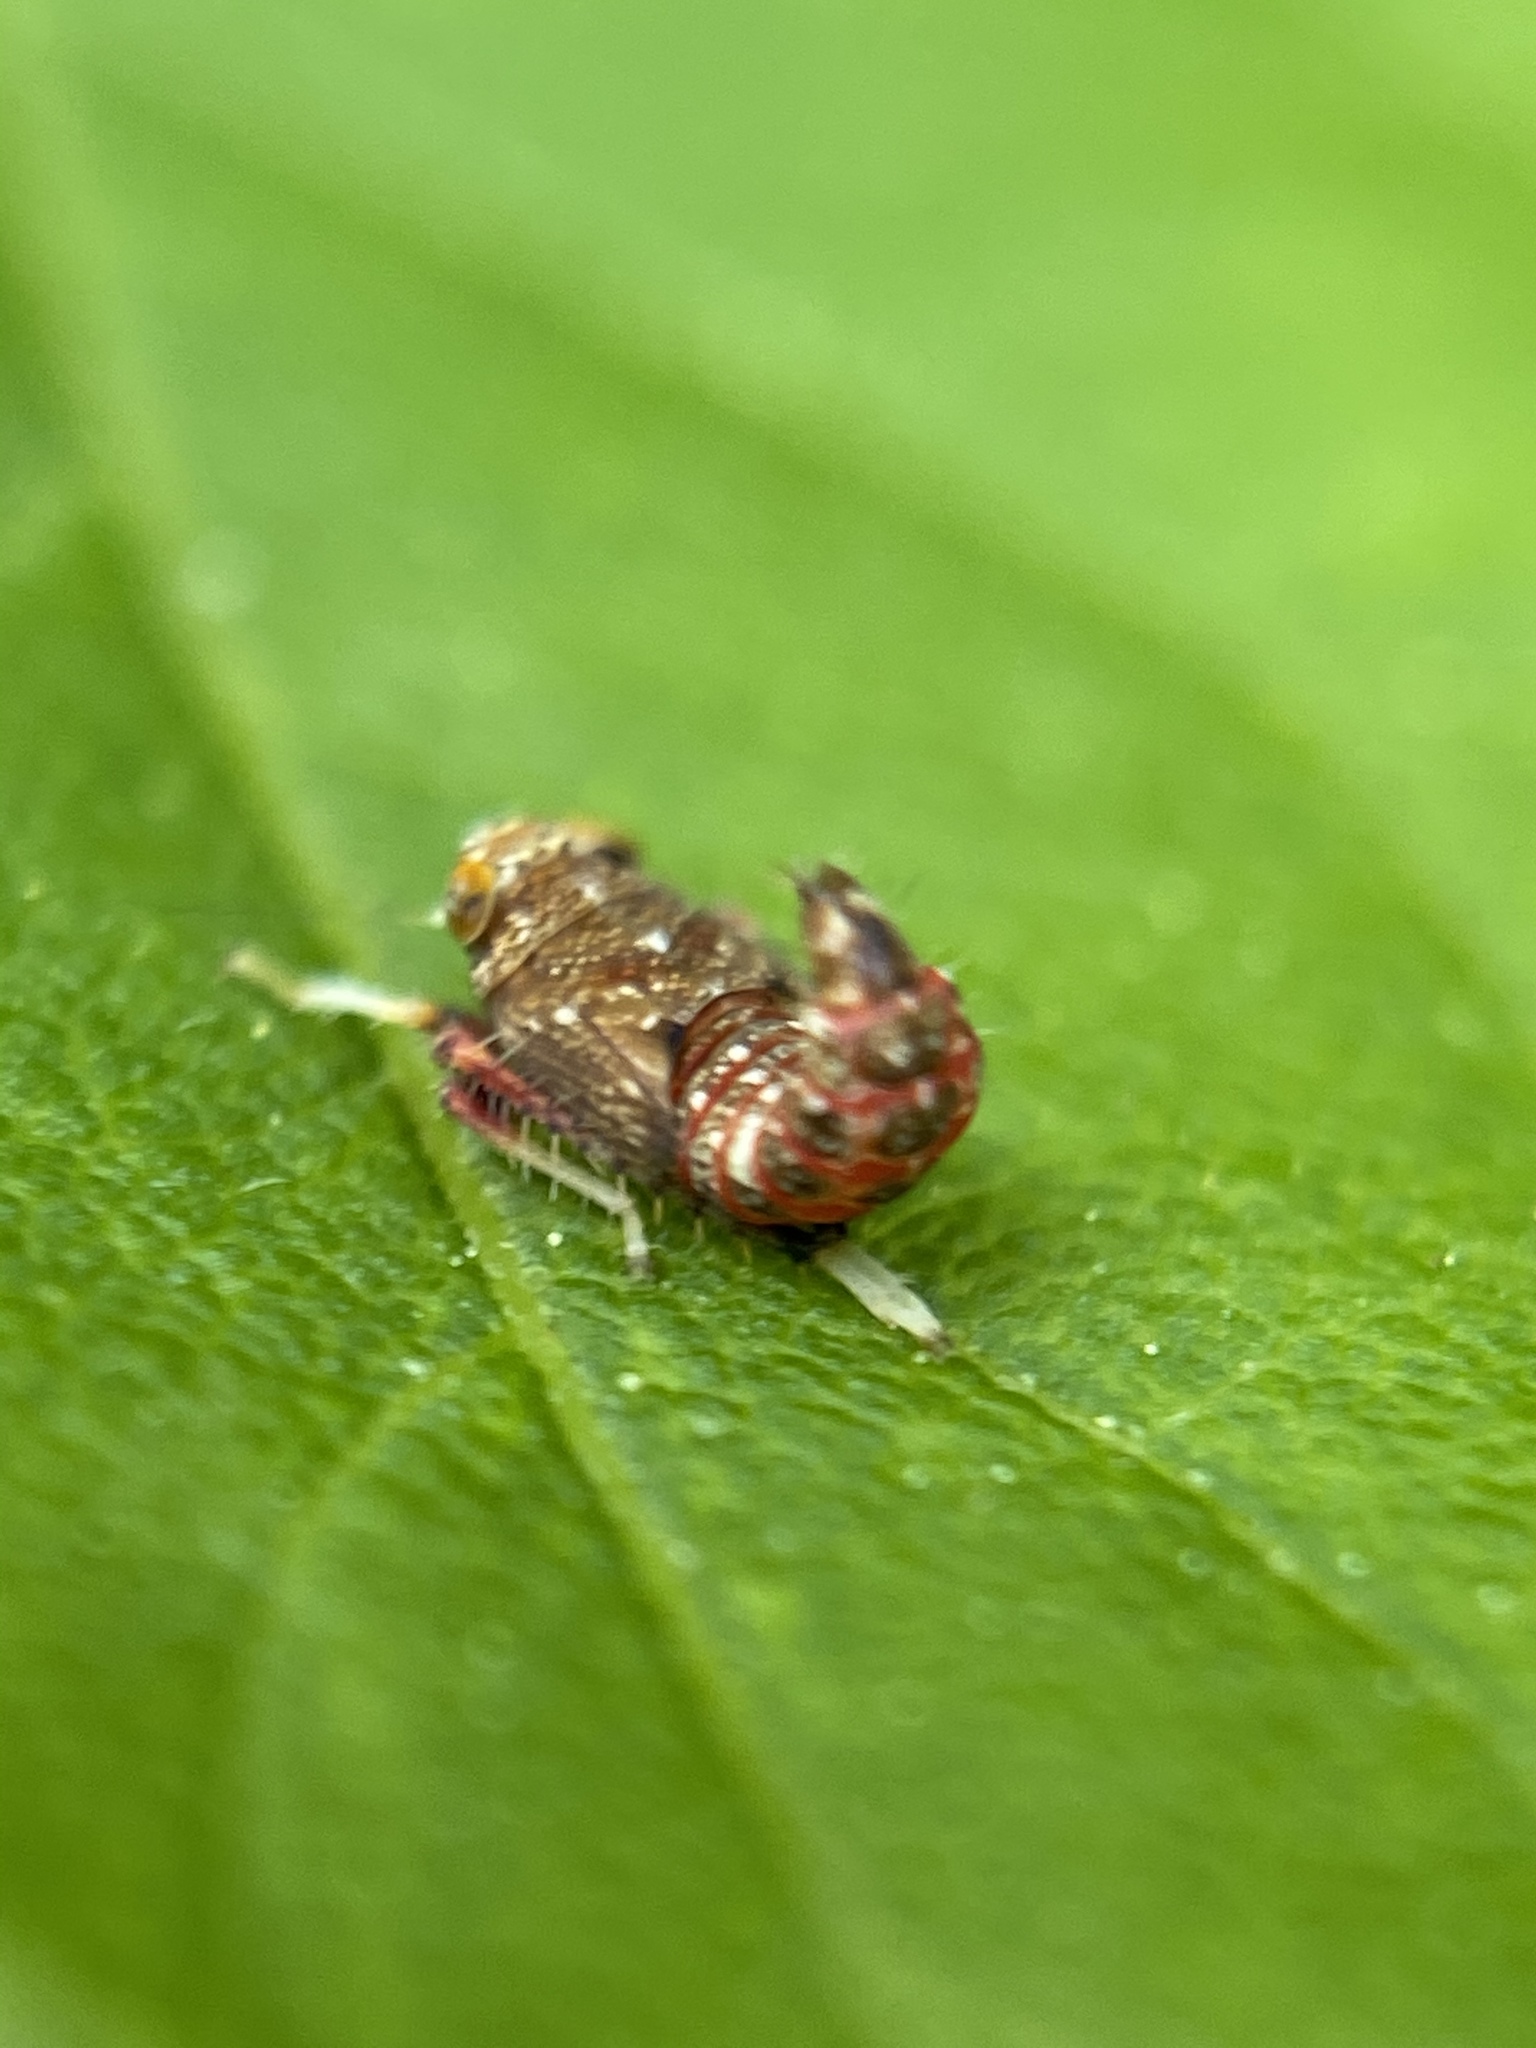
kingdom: Animalia
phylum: Arthropoda
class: Insecta
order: Hemiptera
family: Cicadellidae
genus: Orientus
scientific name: Orientus ishidae
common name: Japanese leafhopper
